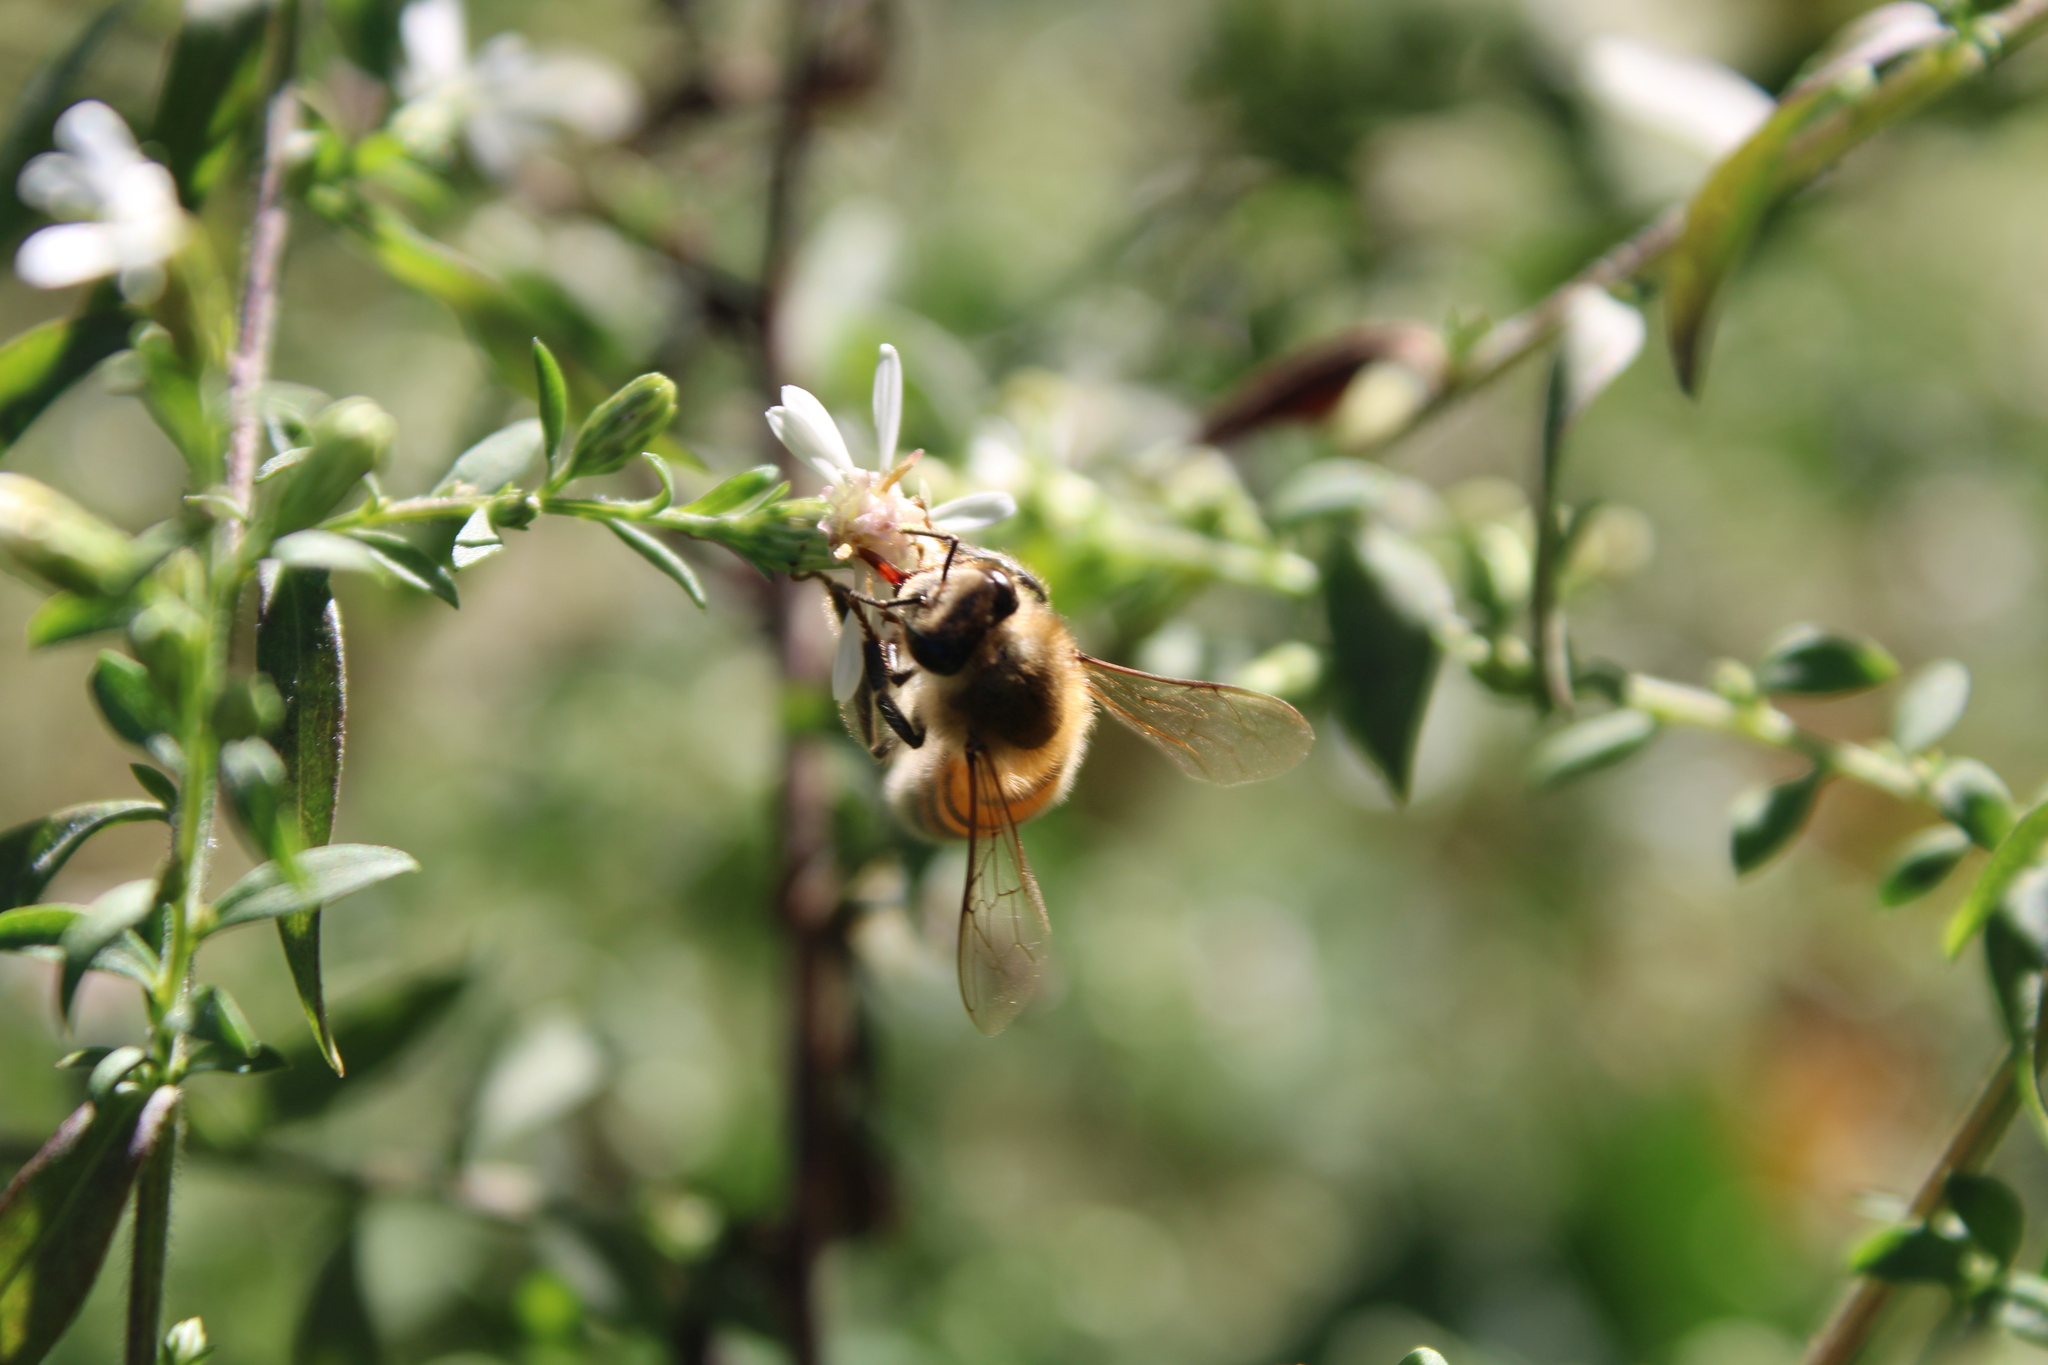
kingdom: Animalia
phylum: Arthropoda
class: Insecta
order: Hymenoptera
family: Apidae
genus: Apis
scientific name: Apis mellifera
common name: Honey bee
